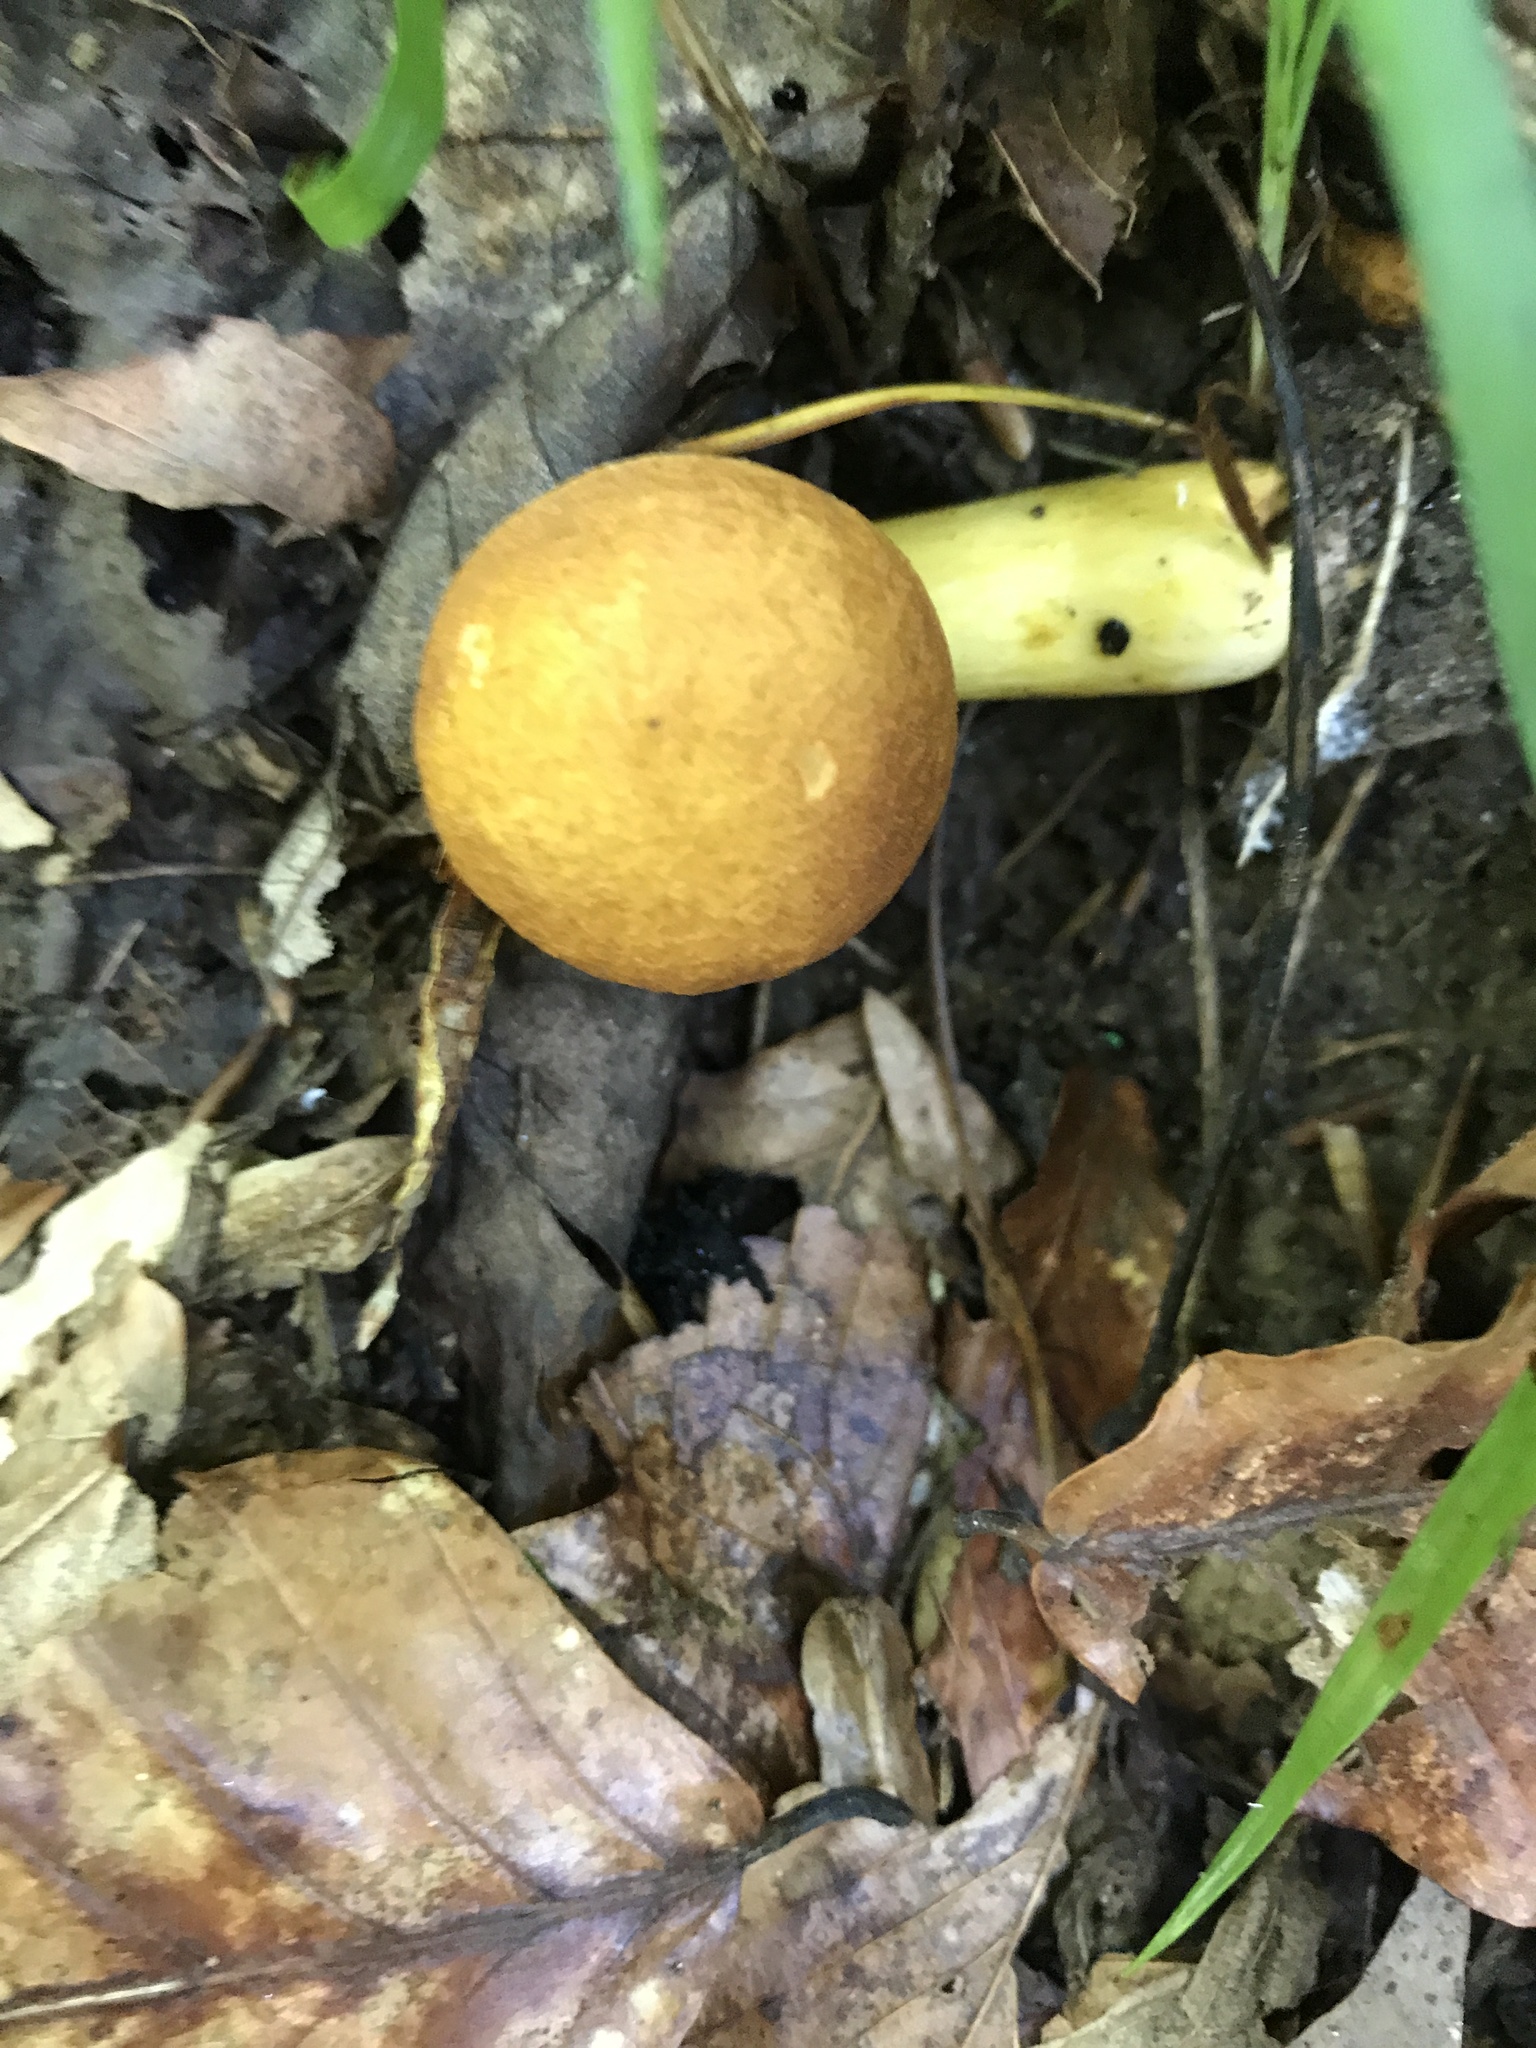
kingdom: Fungi
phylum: Basidiomycota
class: Agaricomycetes
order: Boletales
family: Boletaceae
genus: Aureoboletus
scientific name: Aureoboletus roxanae
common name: Roxane's bolete
